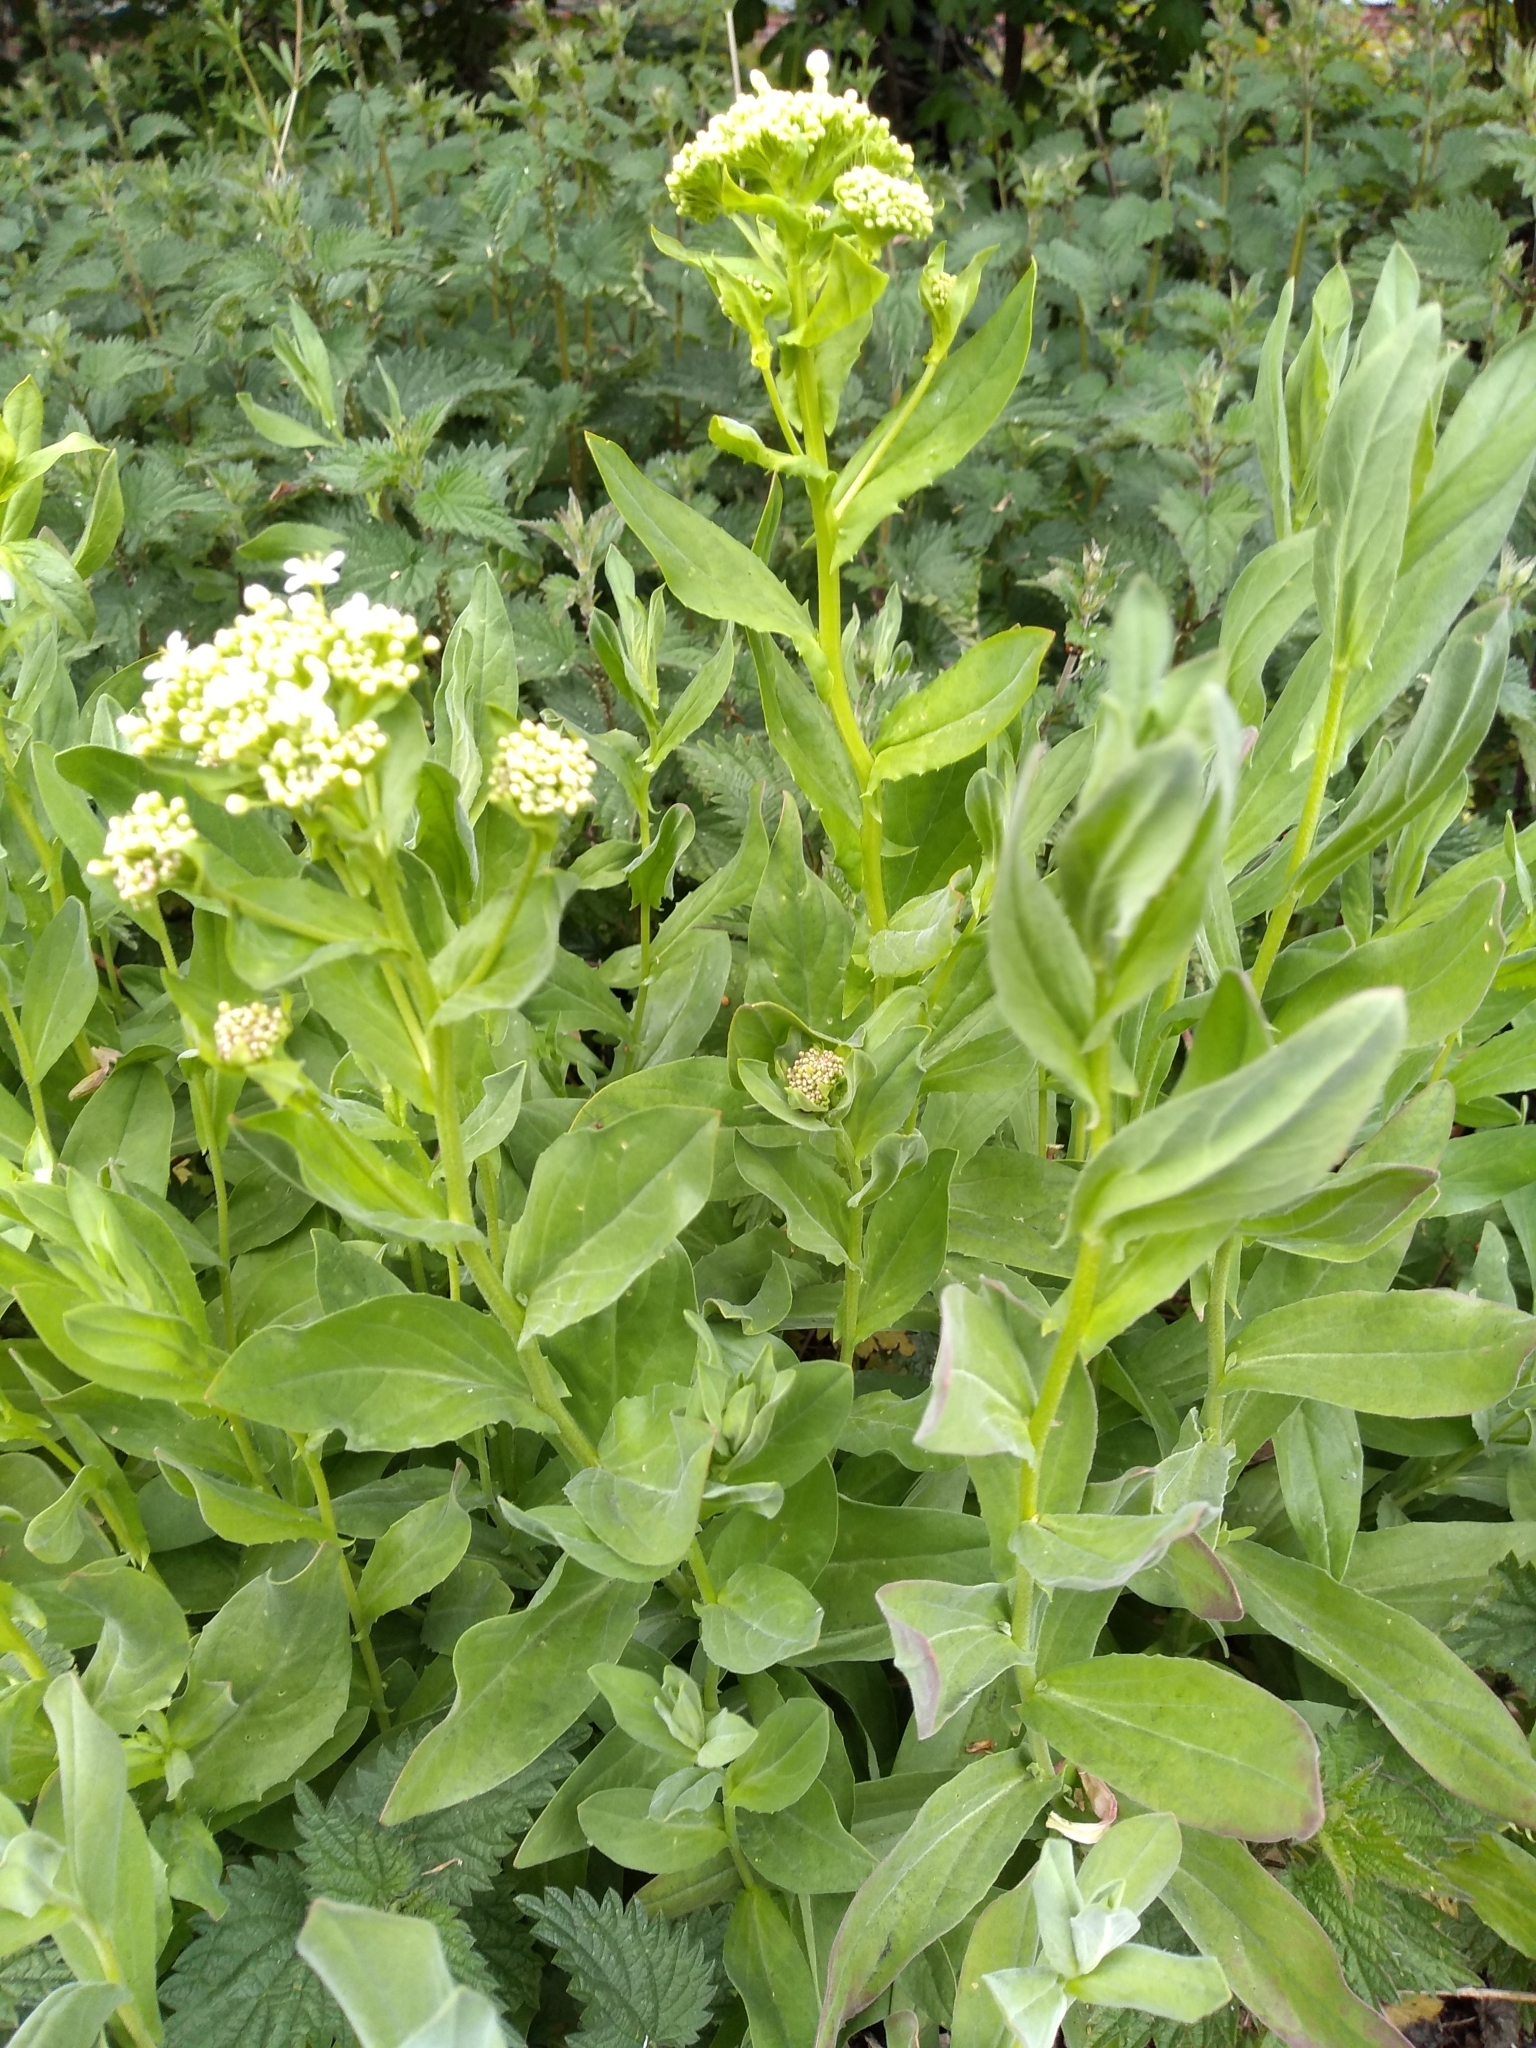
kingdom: Plantae
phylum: Tracheophyta
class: Magnoliopsida
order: Brassicales
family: Brassicaceae
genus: Lepidium
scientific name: Lepidium draba
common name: Hoary cress
